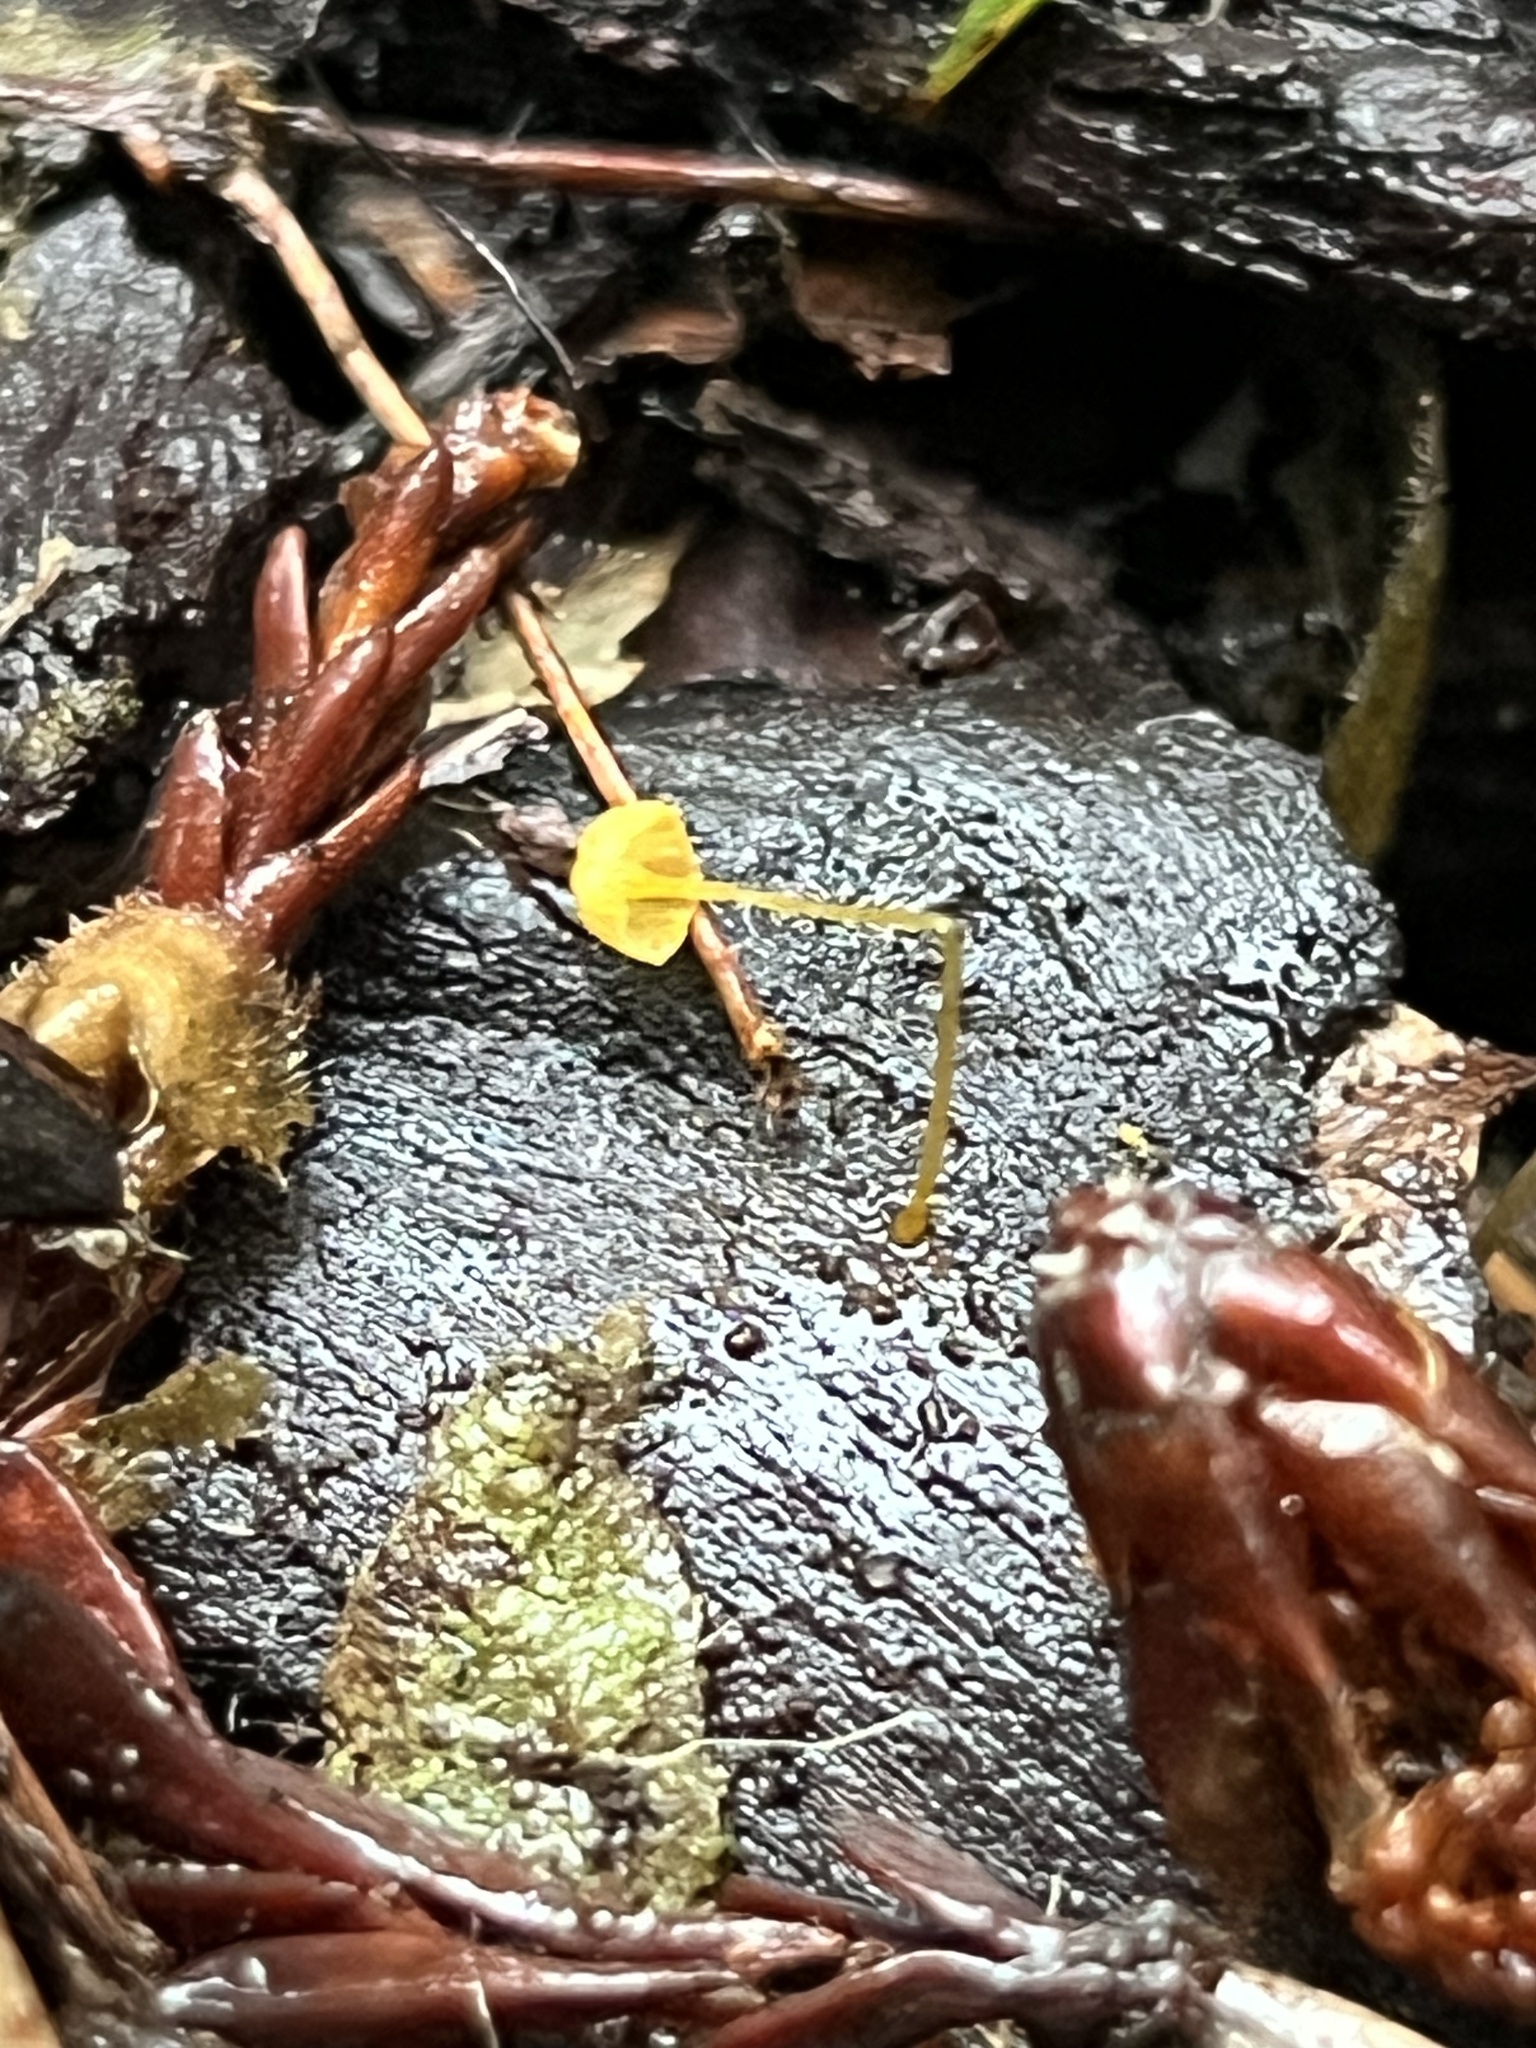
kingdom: Fungi
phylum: Basidiomycota
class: Agaricomycetes
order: Agaricales
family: Mycenaceae
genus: Mycena
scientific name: Mycena oregonensis
